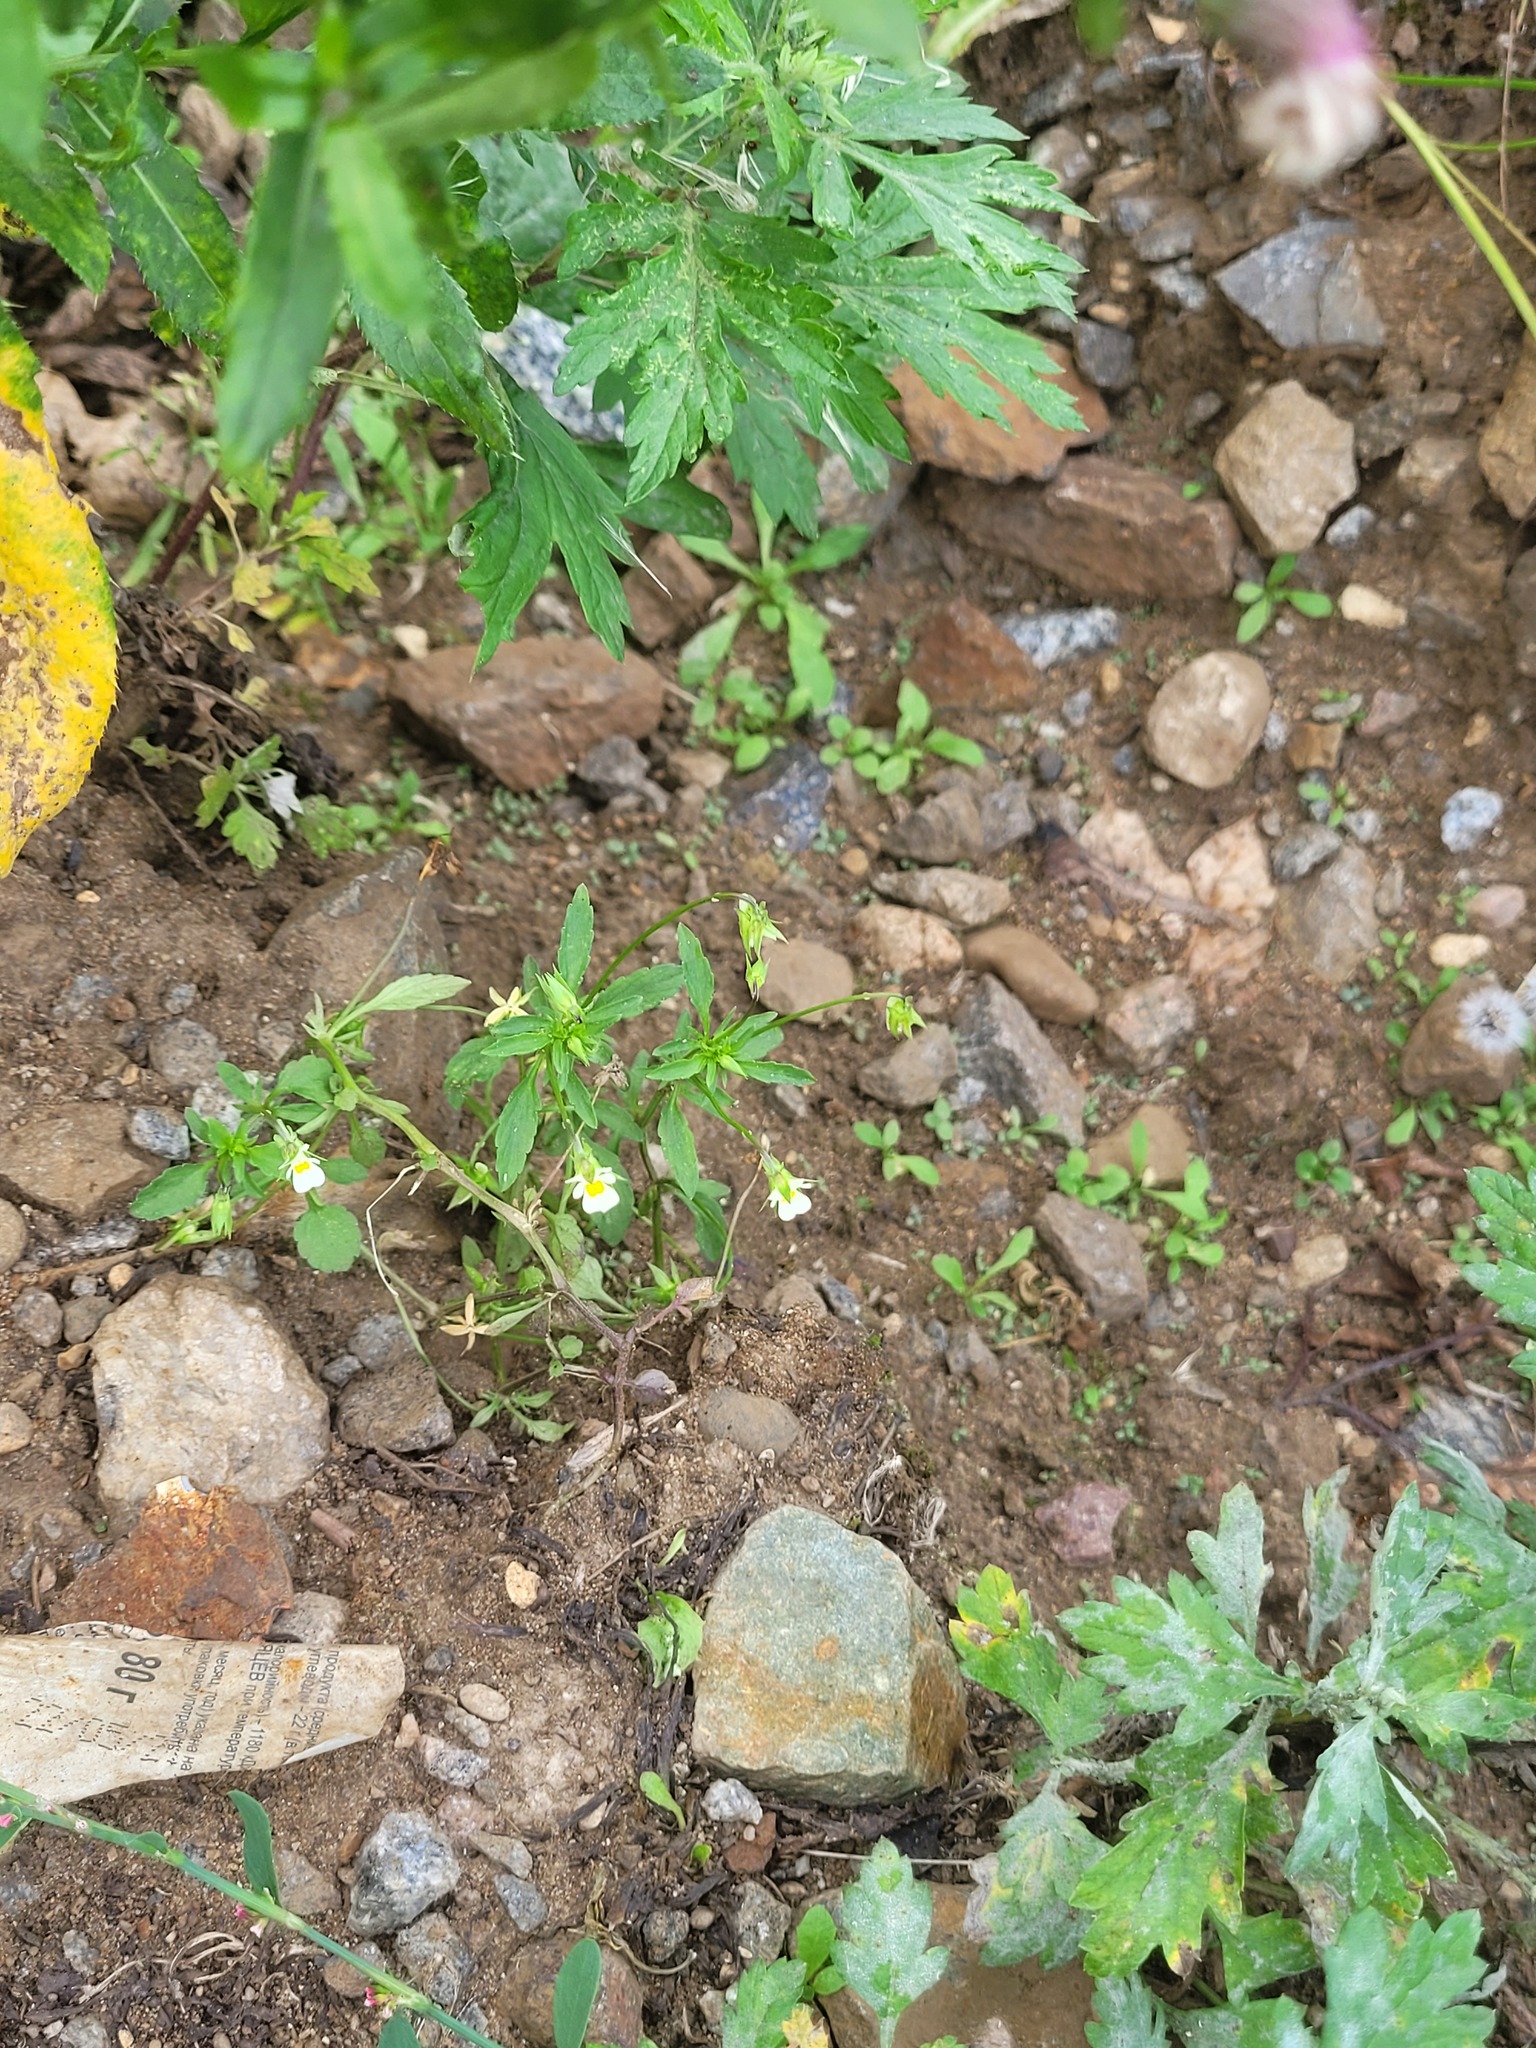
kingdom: Plantae
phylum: Tracheophyta
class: Magnoliopsida
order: Malpighiales
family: Violaceae
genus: Viola
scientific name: Viola arvensis
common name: Field pansy
